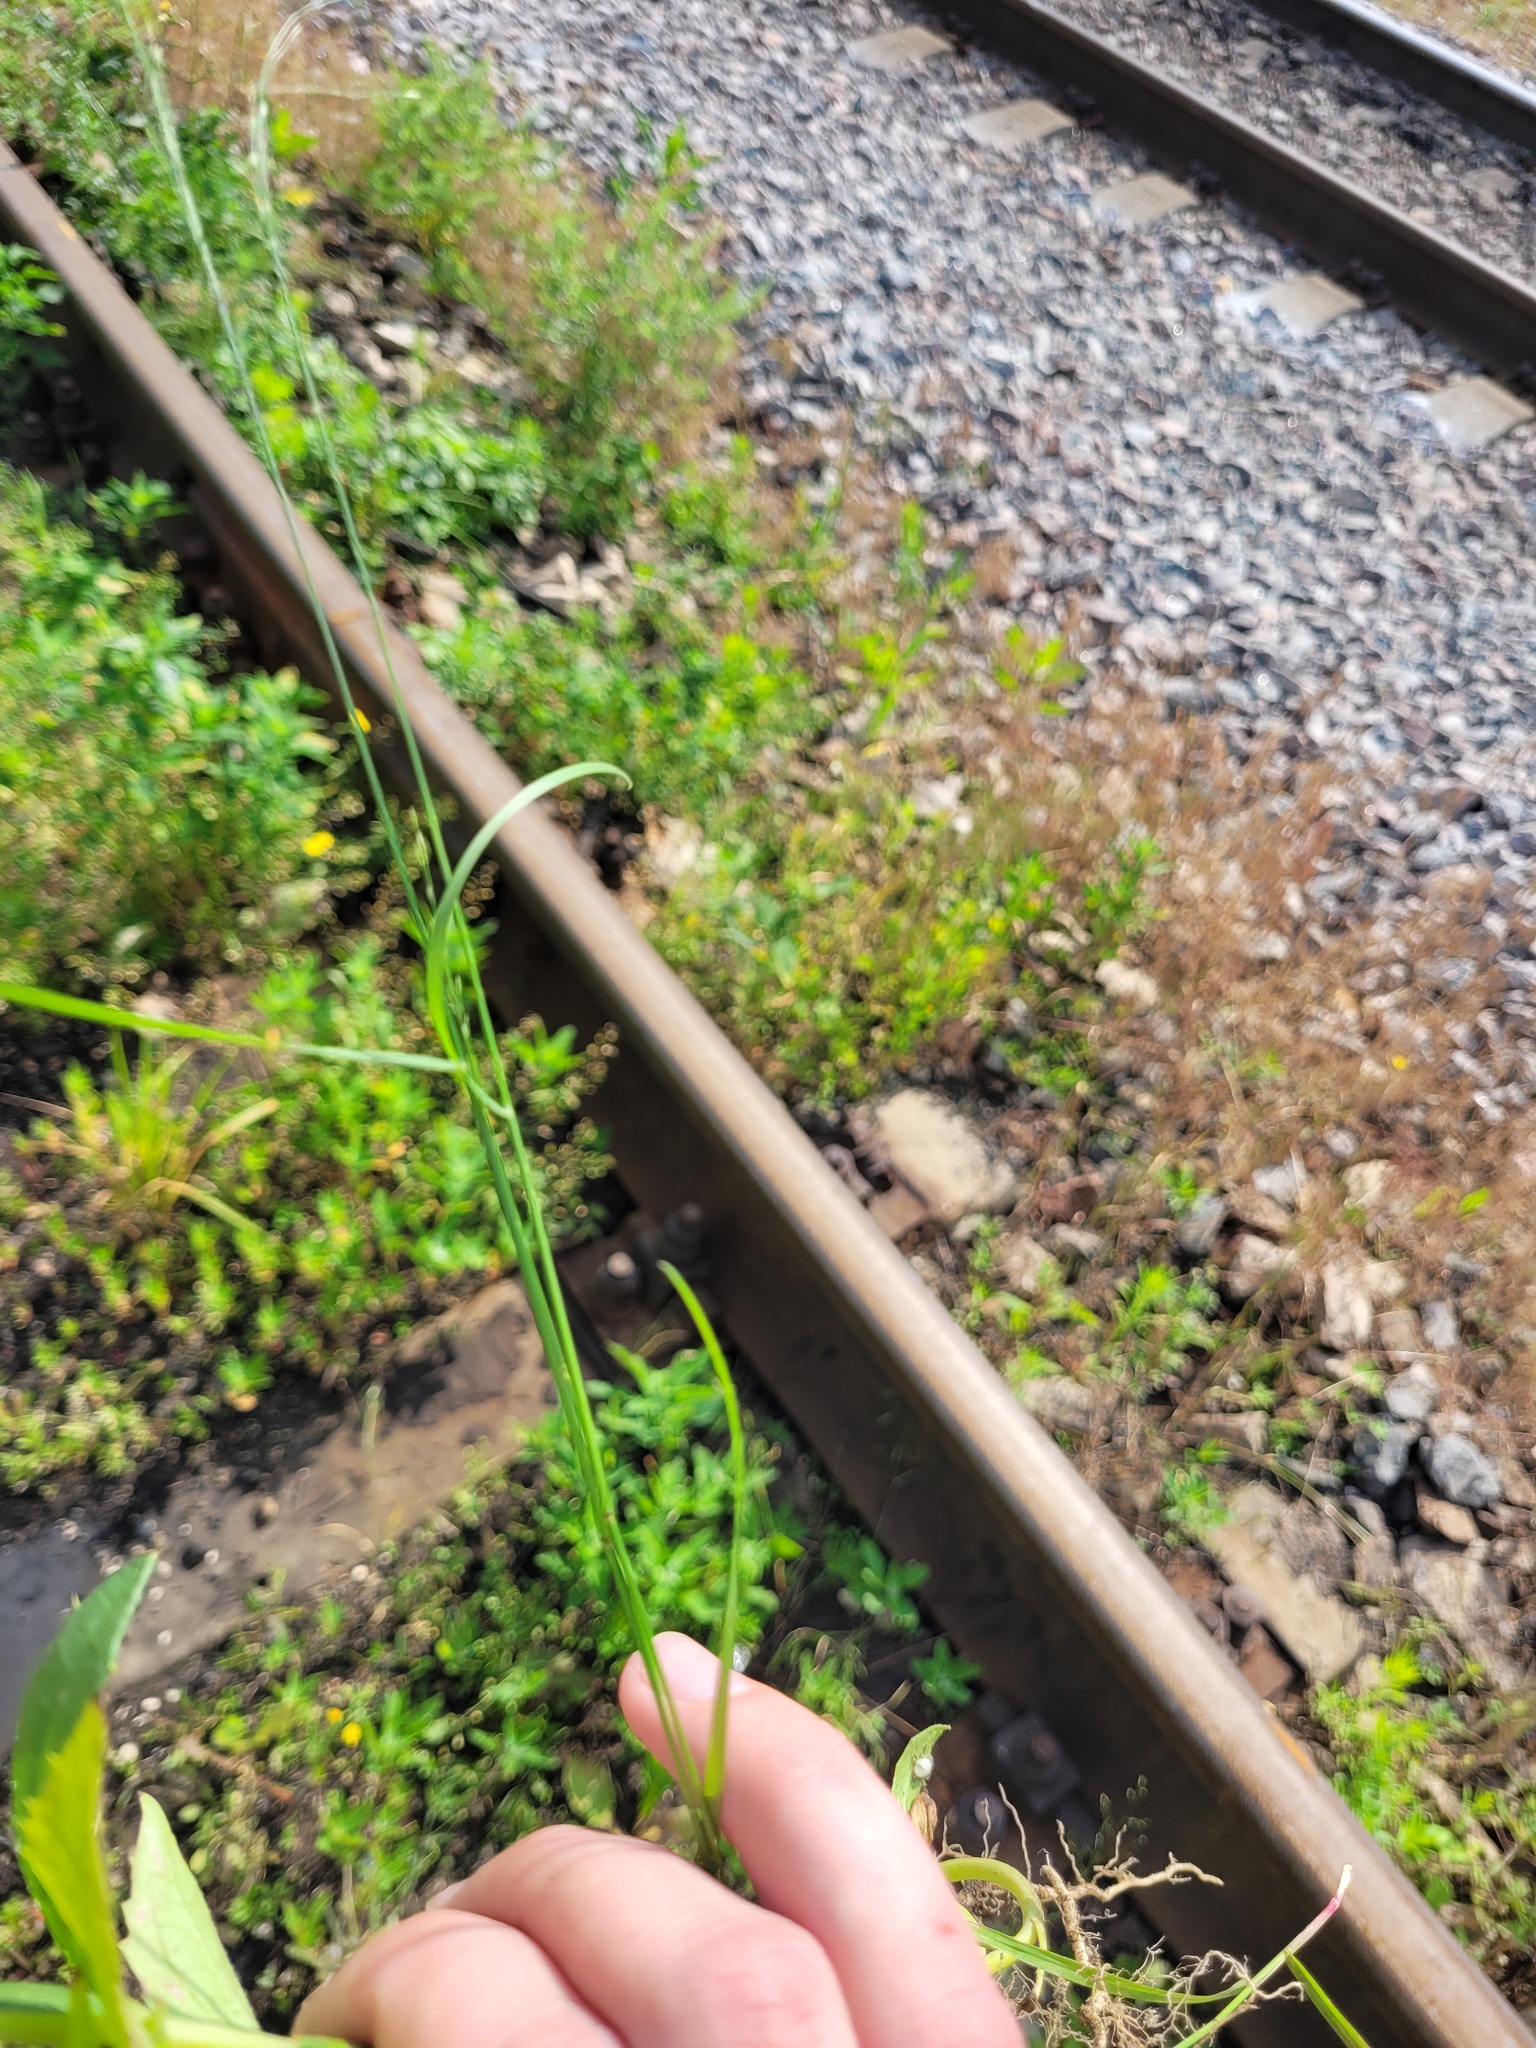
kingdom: Plantae
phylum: Tracheophyta
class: Liliopsida
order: Poales
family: Poaceae
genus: Poa
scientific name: Poa palustris
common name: Swamp meadow-grass
